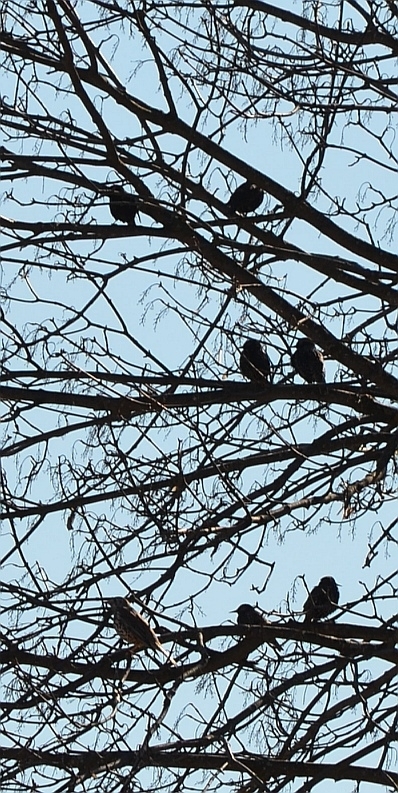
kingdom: Animalia
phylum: Chordata
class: Aves
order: Passeriformes
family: Turdidae
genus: Turdus
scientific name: Turdus viscivorus
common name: Mistle thrush
